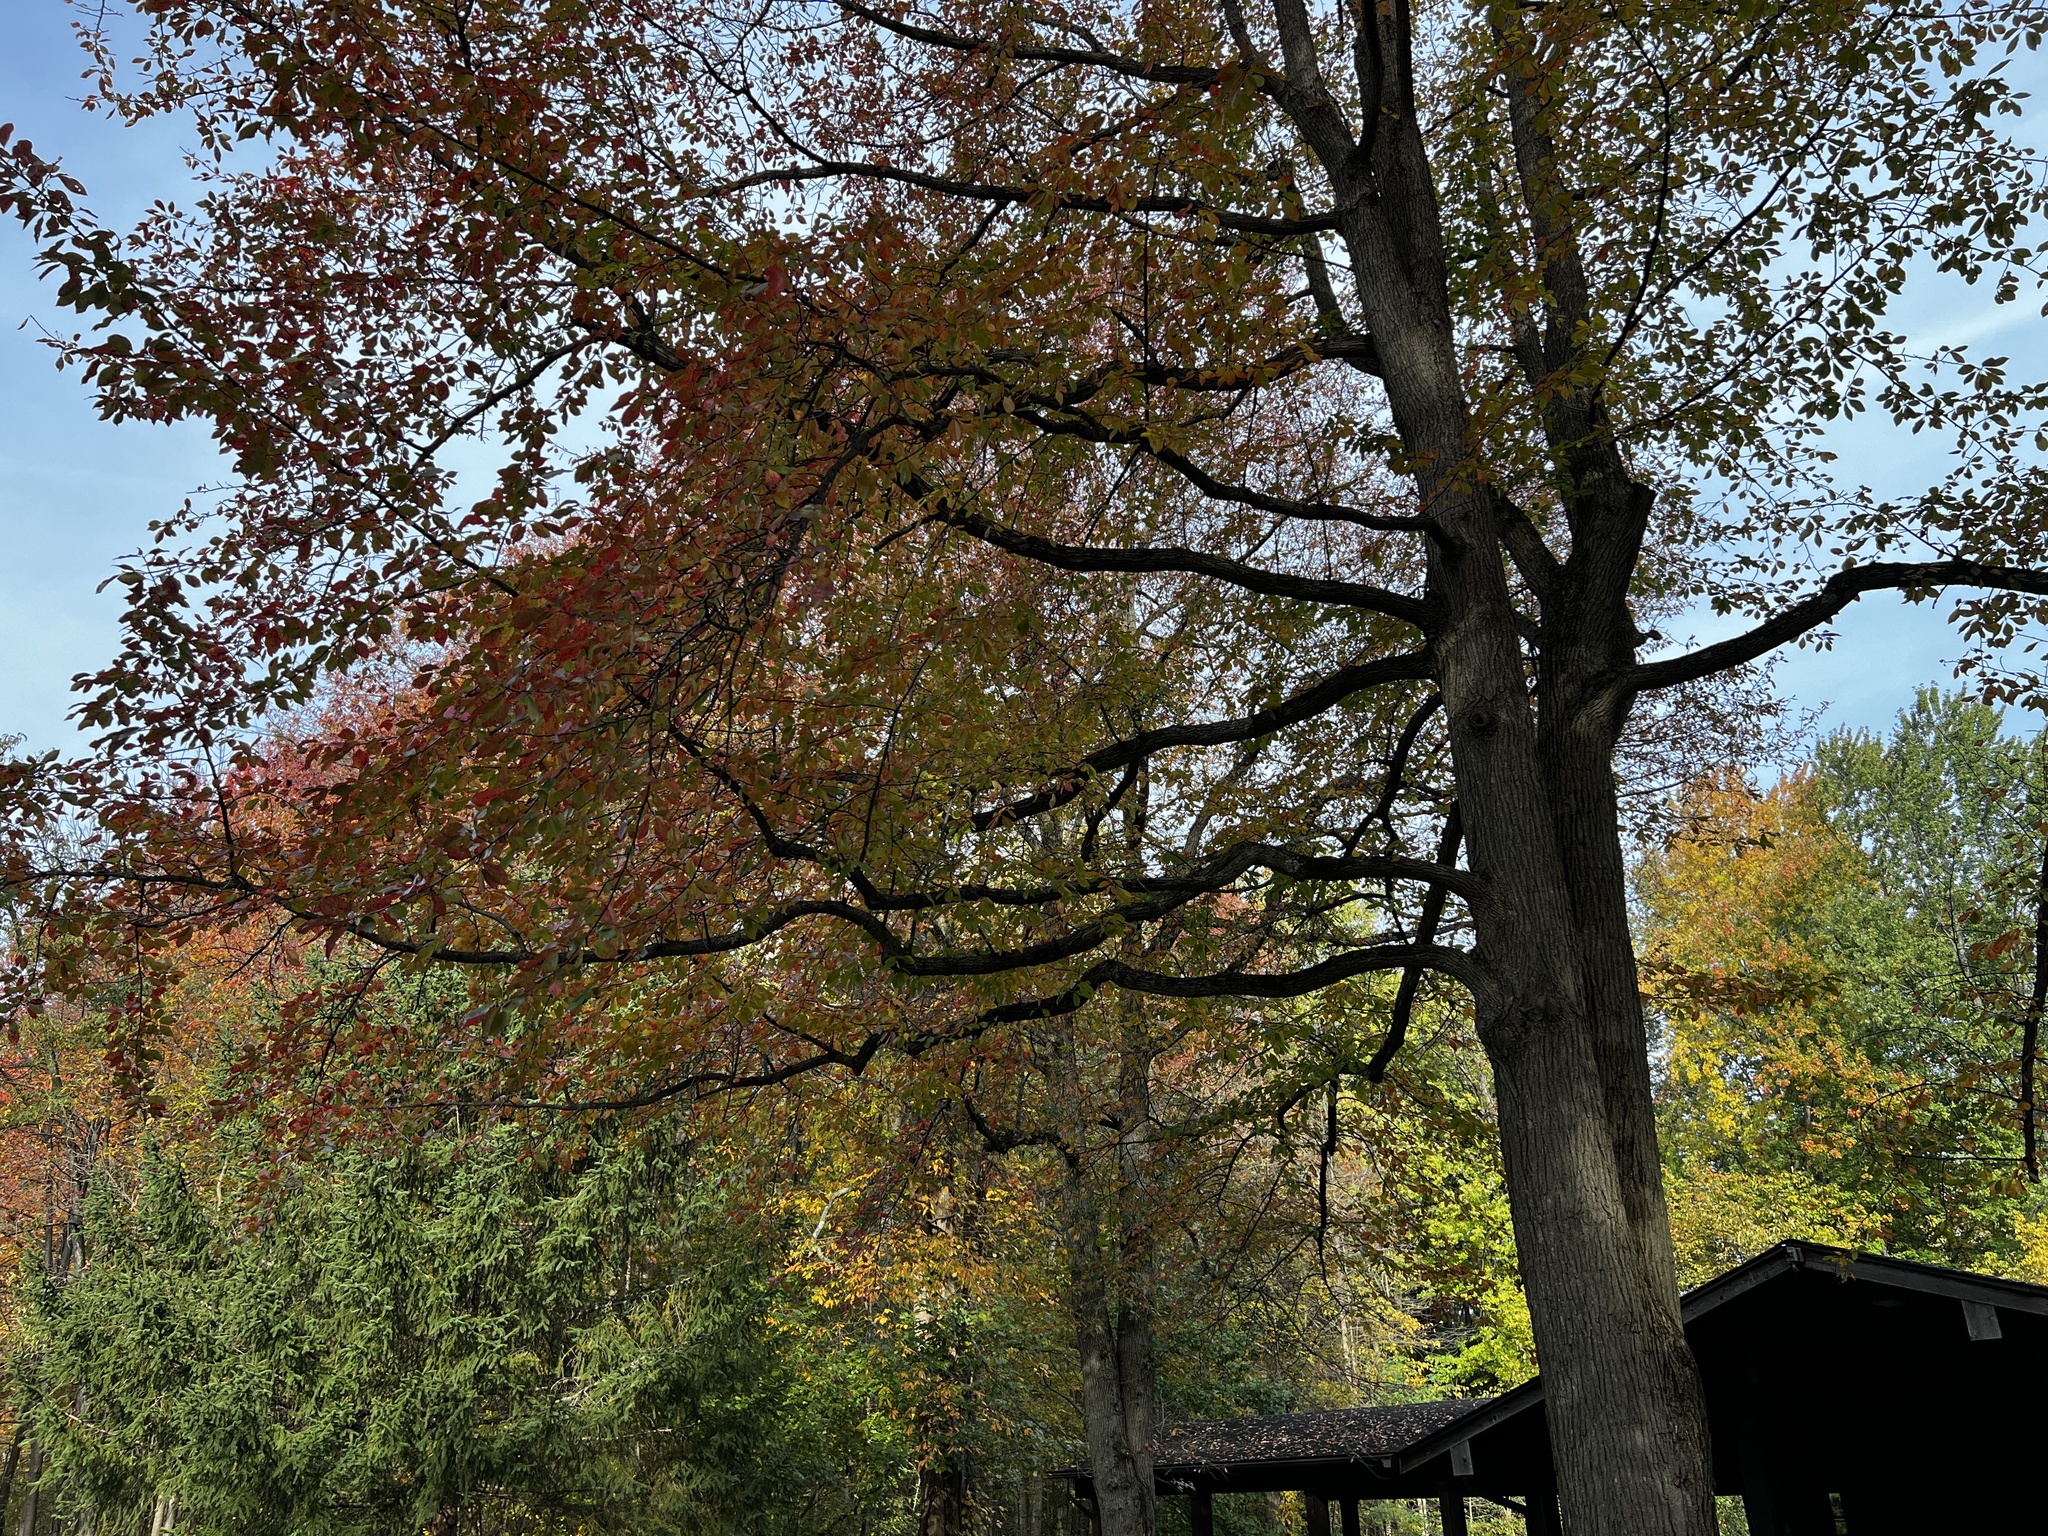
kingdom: Plantae
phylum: Tracheophyta
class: Magnoliopsida
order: Cornales
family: Nyssaceae
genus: Nyssa
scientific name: Nyssa sylvatica
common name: Black tupelo
